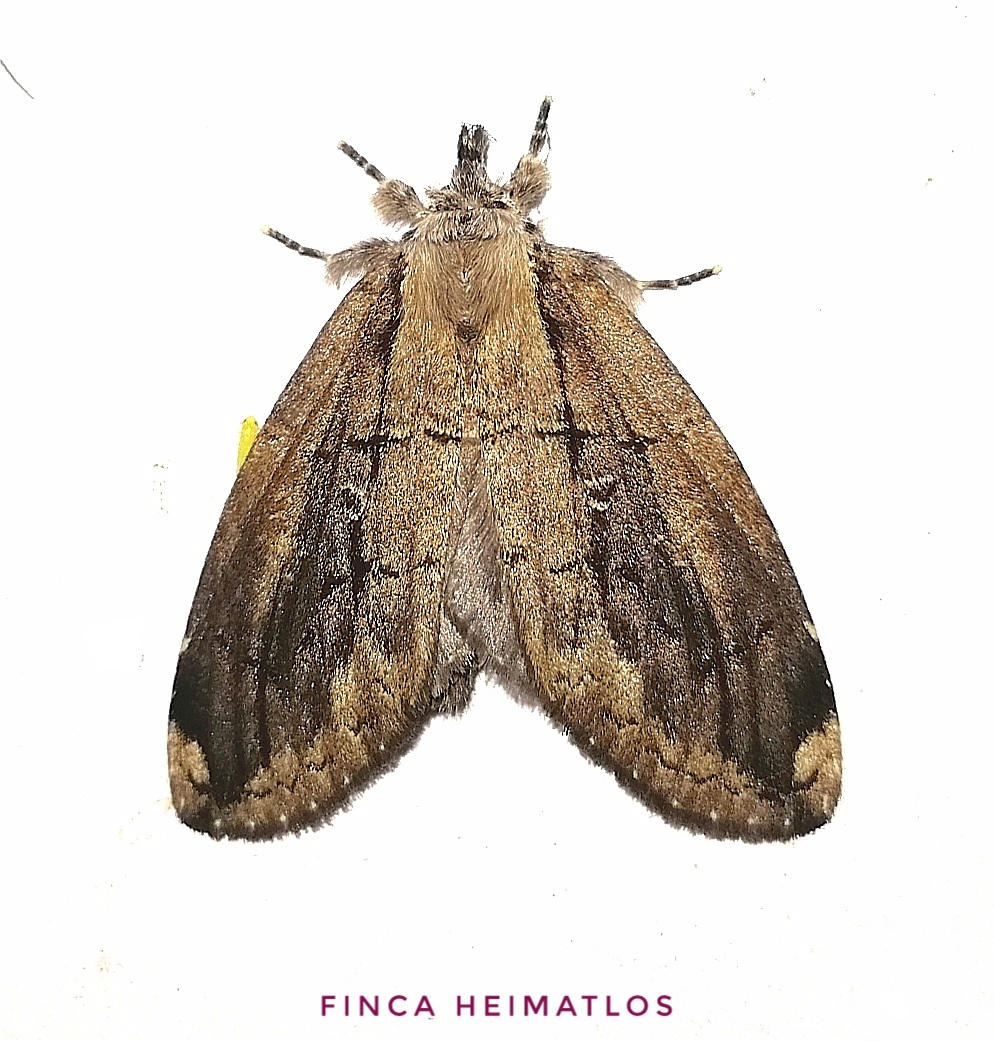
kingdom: Animalia
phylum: Arthropoda
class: Insecta
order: Lepidoptera
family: Notodontidae
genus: Lusura
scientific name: Lusura chera
